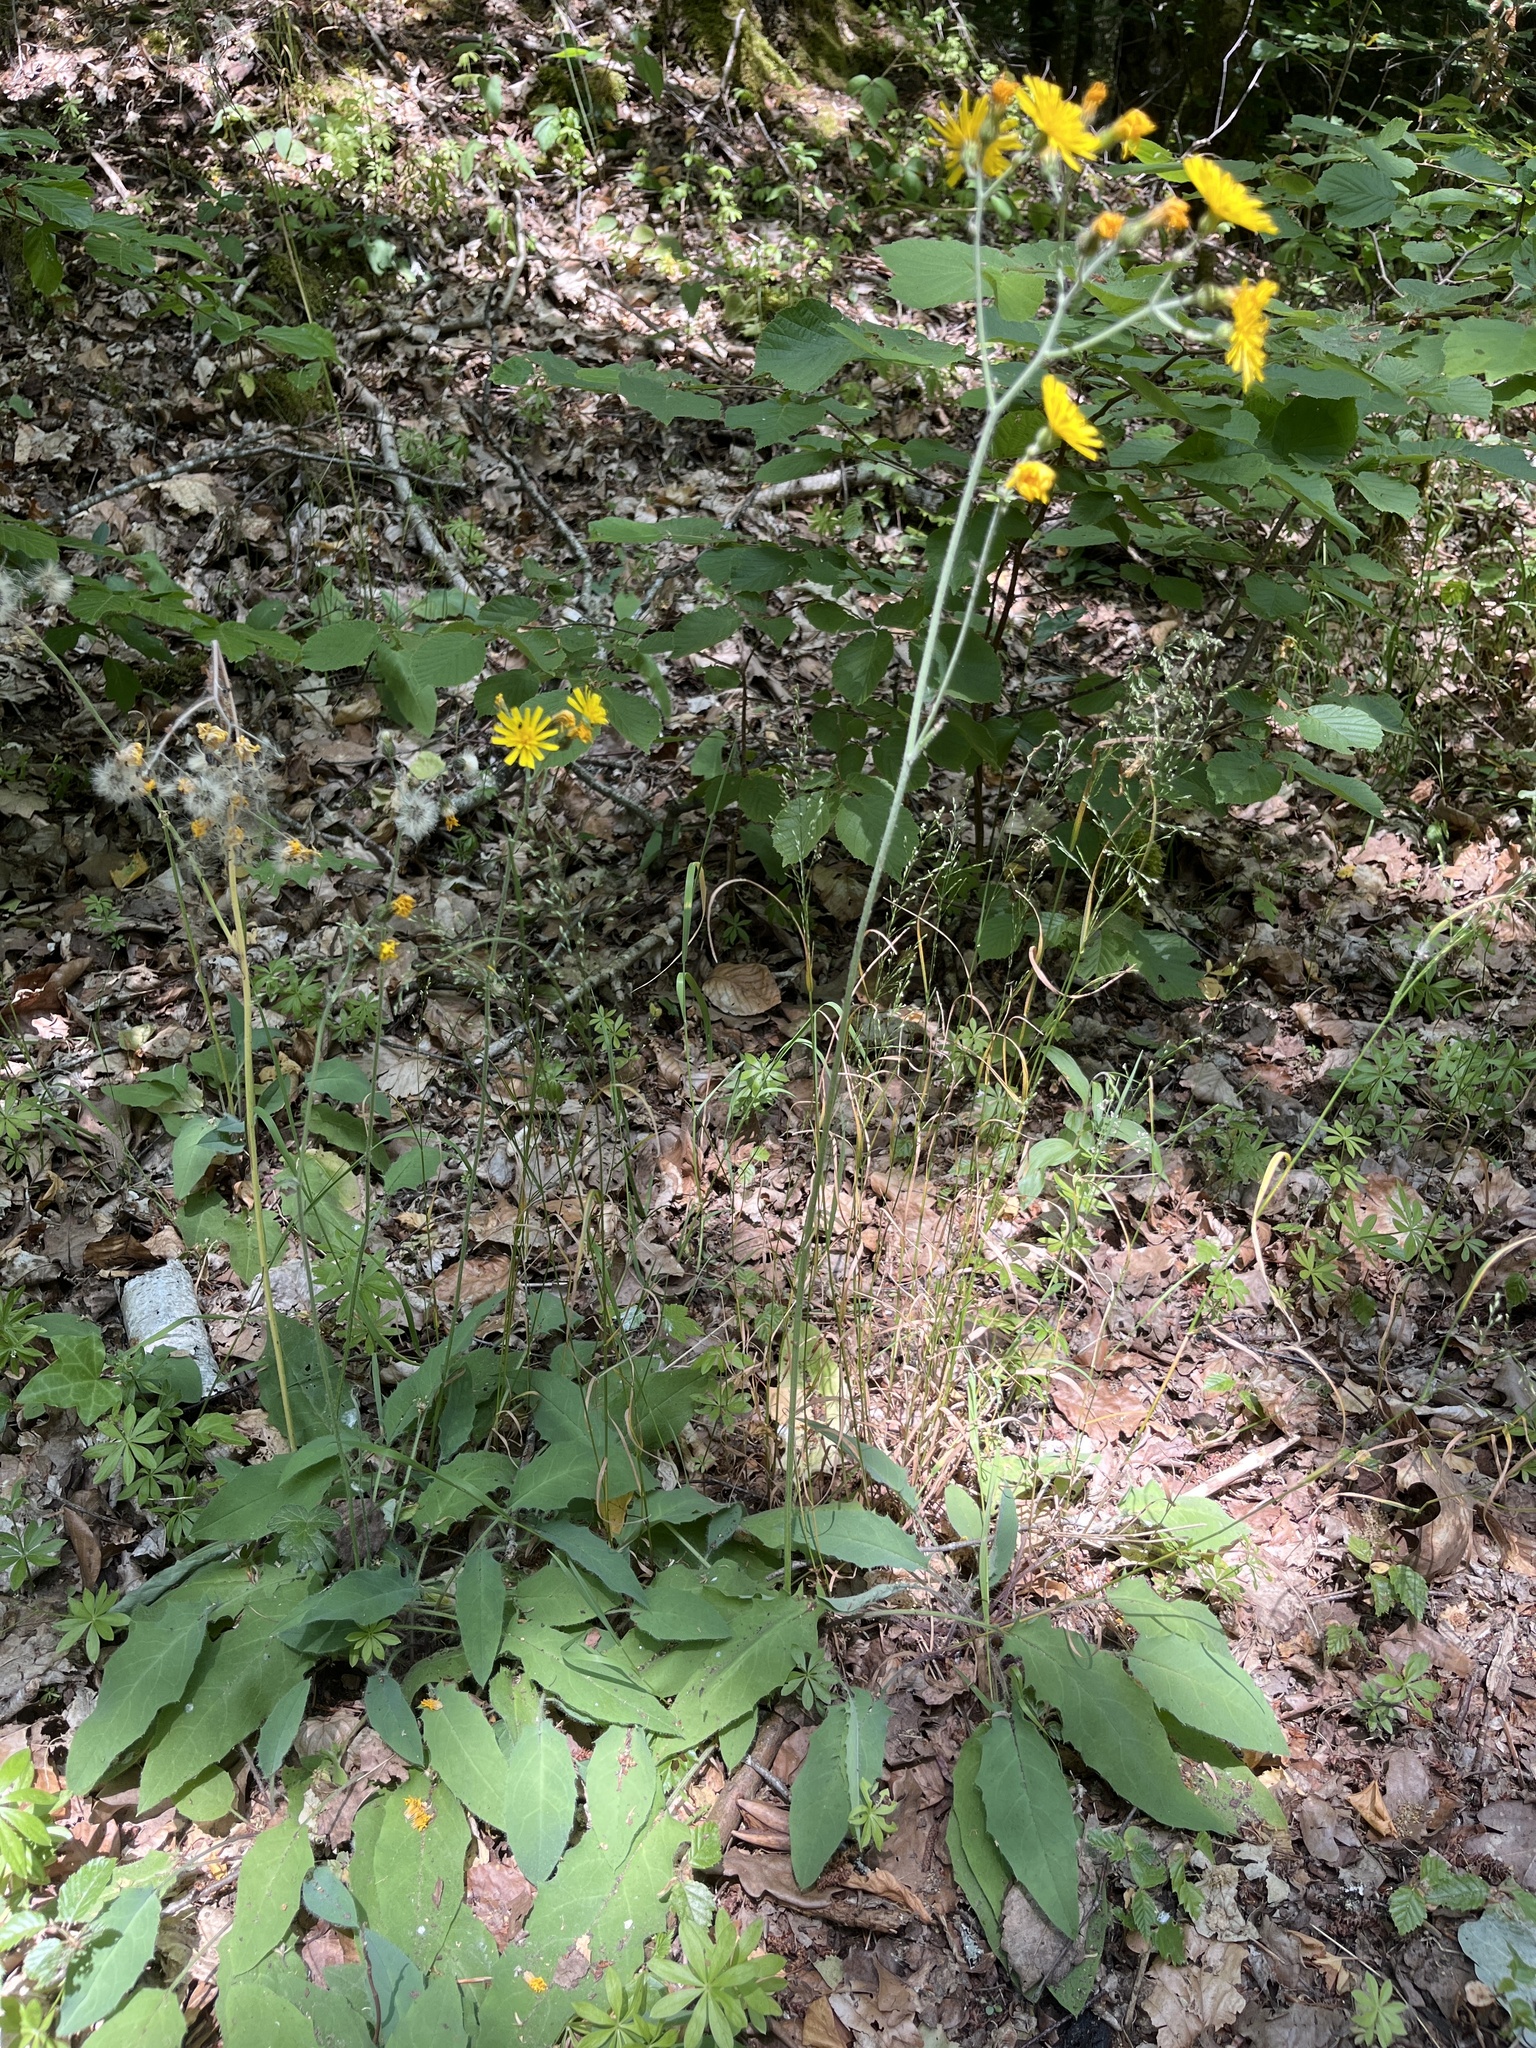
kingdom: Plantae
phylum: Tracheophyta
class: Magnoliopsida
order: Asterales
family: Asteraceae
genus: Hieracium
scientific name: Hieracium murorum
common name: Wall hawkweed
